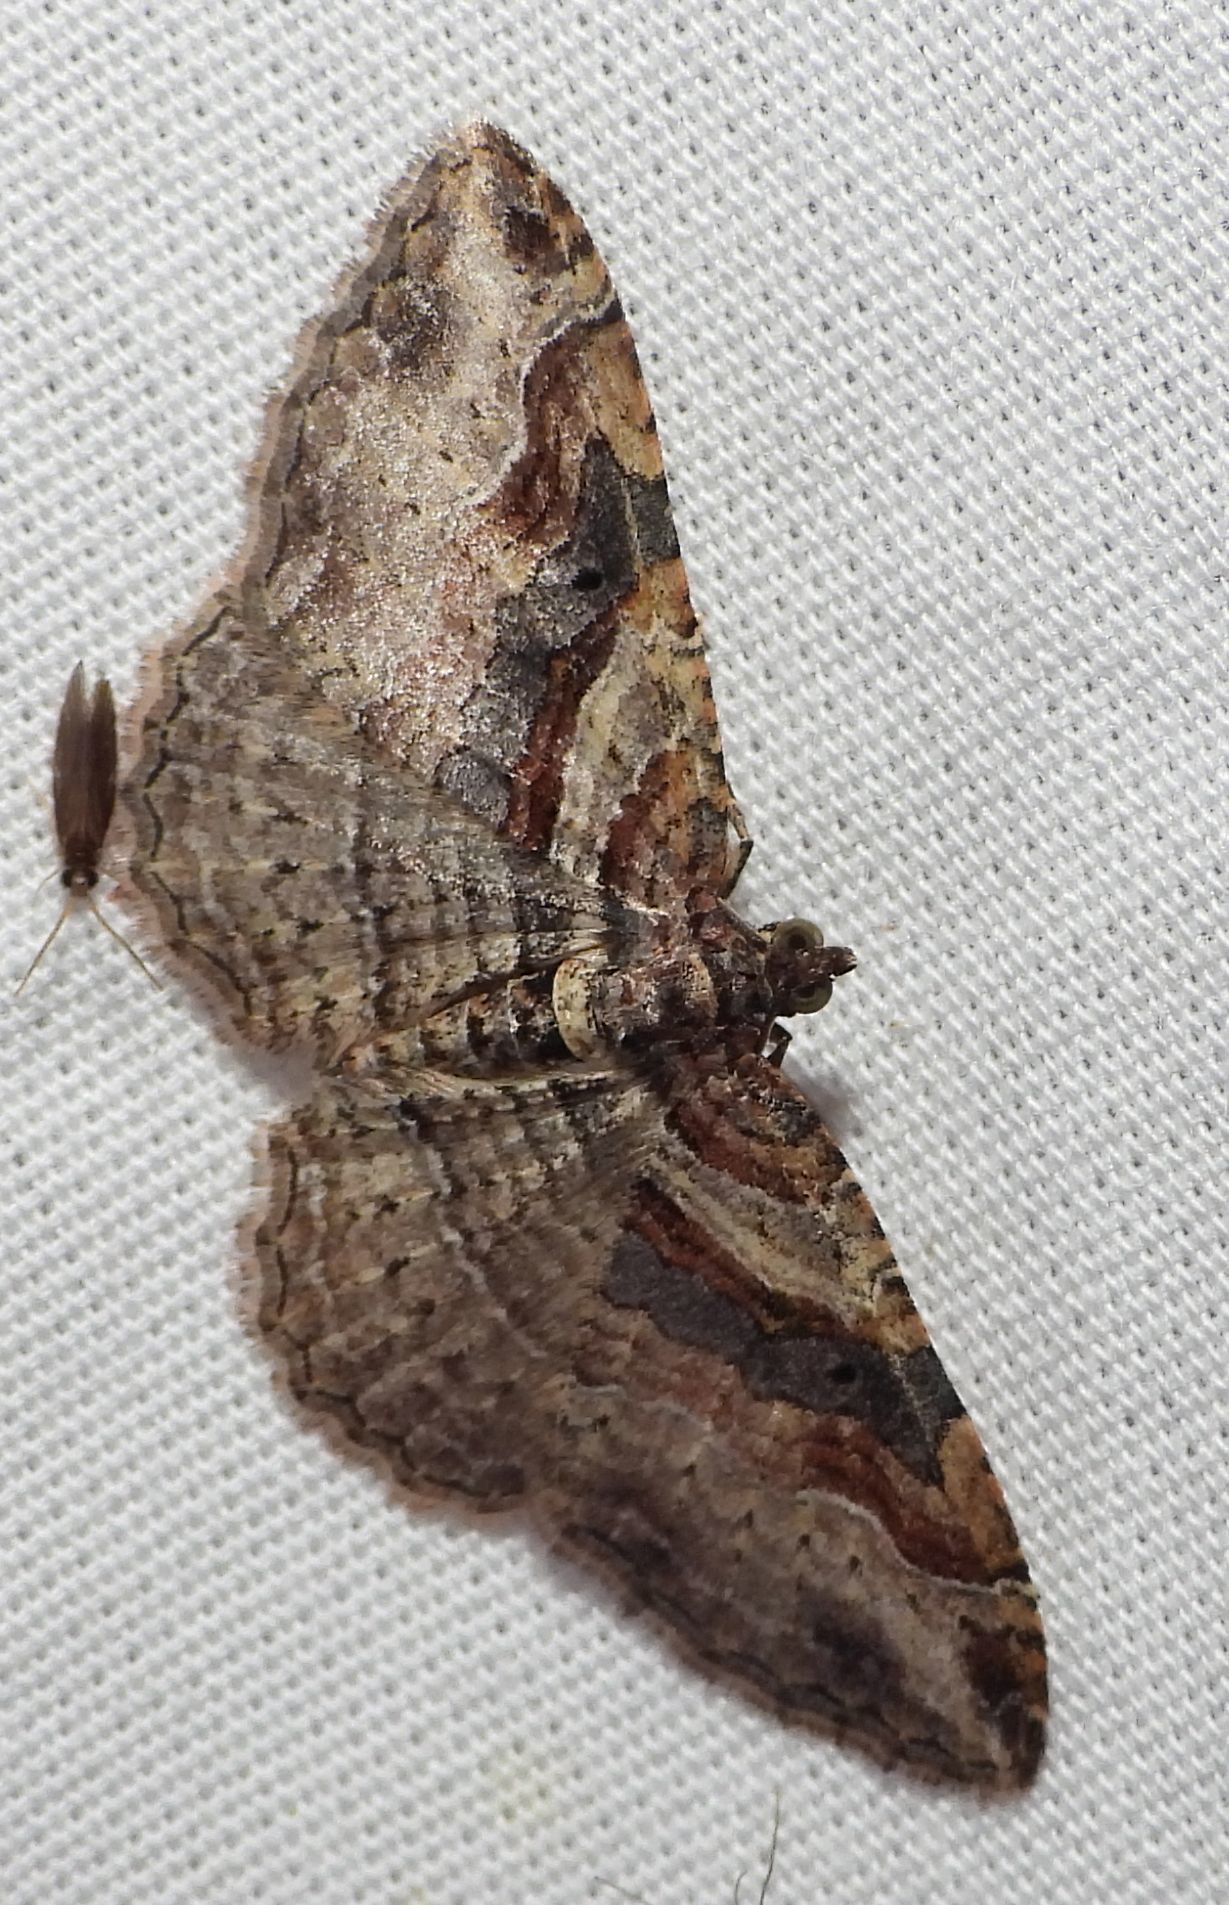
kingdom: Animalia
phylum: Arthropoda
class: Insecta
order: Lepidoptera
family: Geometridae
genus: Costaconvexa
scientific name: Costaconvexa centrostrigaria
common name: Bent-line carpet
